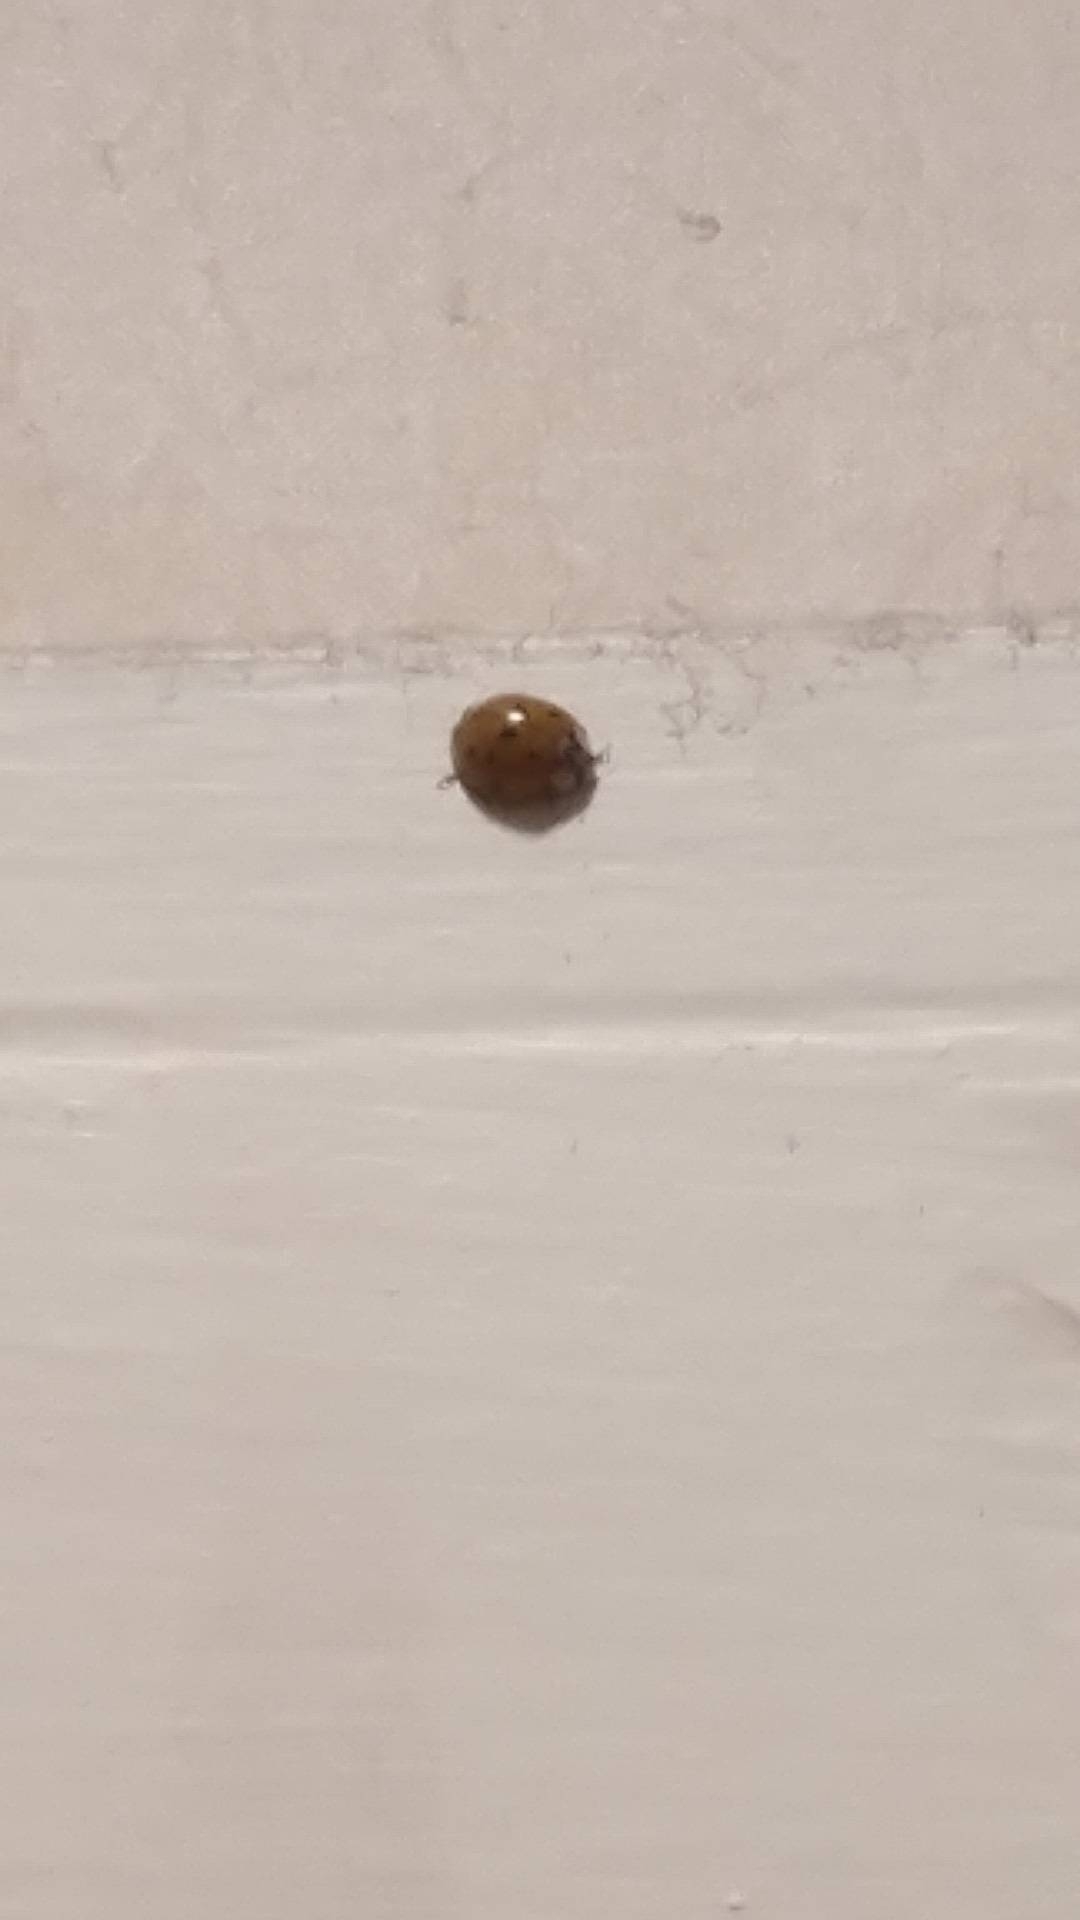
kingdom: Animalia
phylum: Arthropoda
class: Insecta
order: Coleoptera
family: Coccinellidae
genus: Harmonia
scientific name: Harmonia axyridis
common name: Harlequin ladybird
